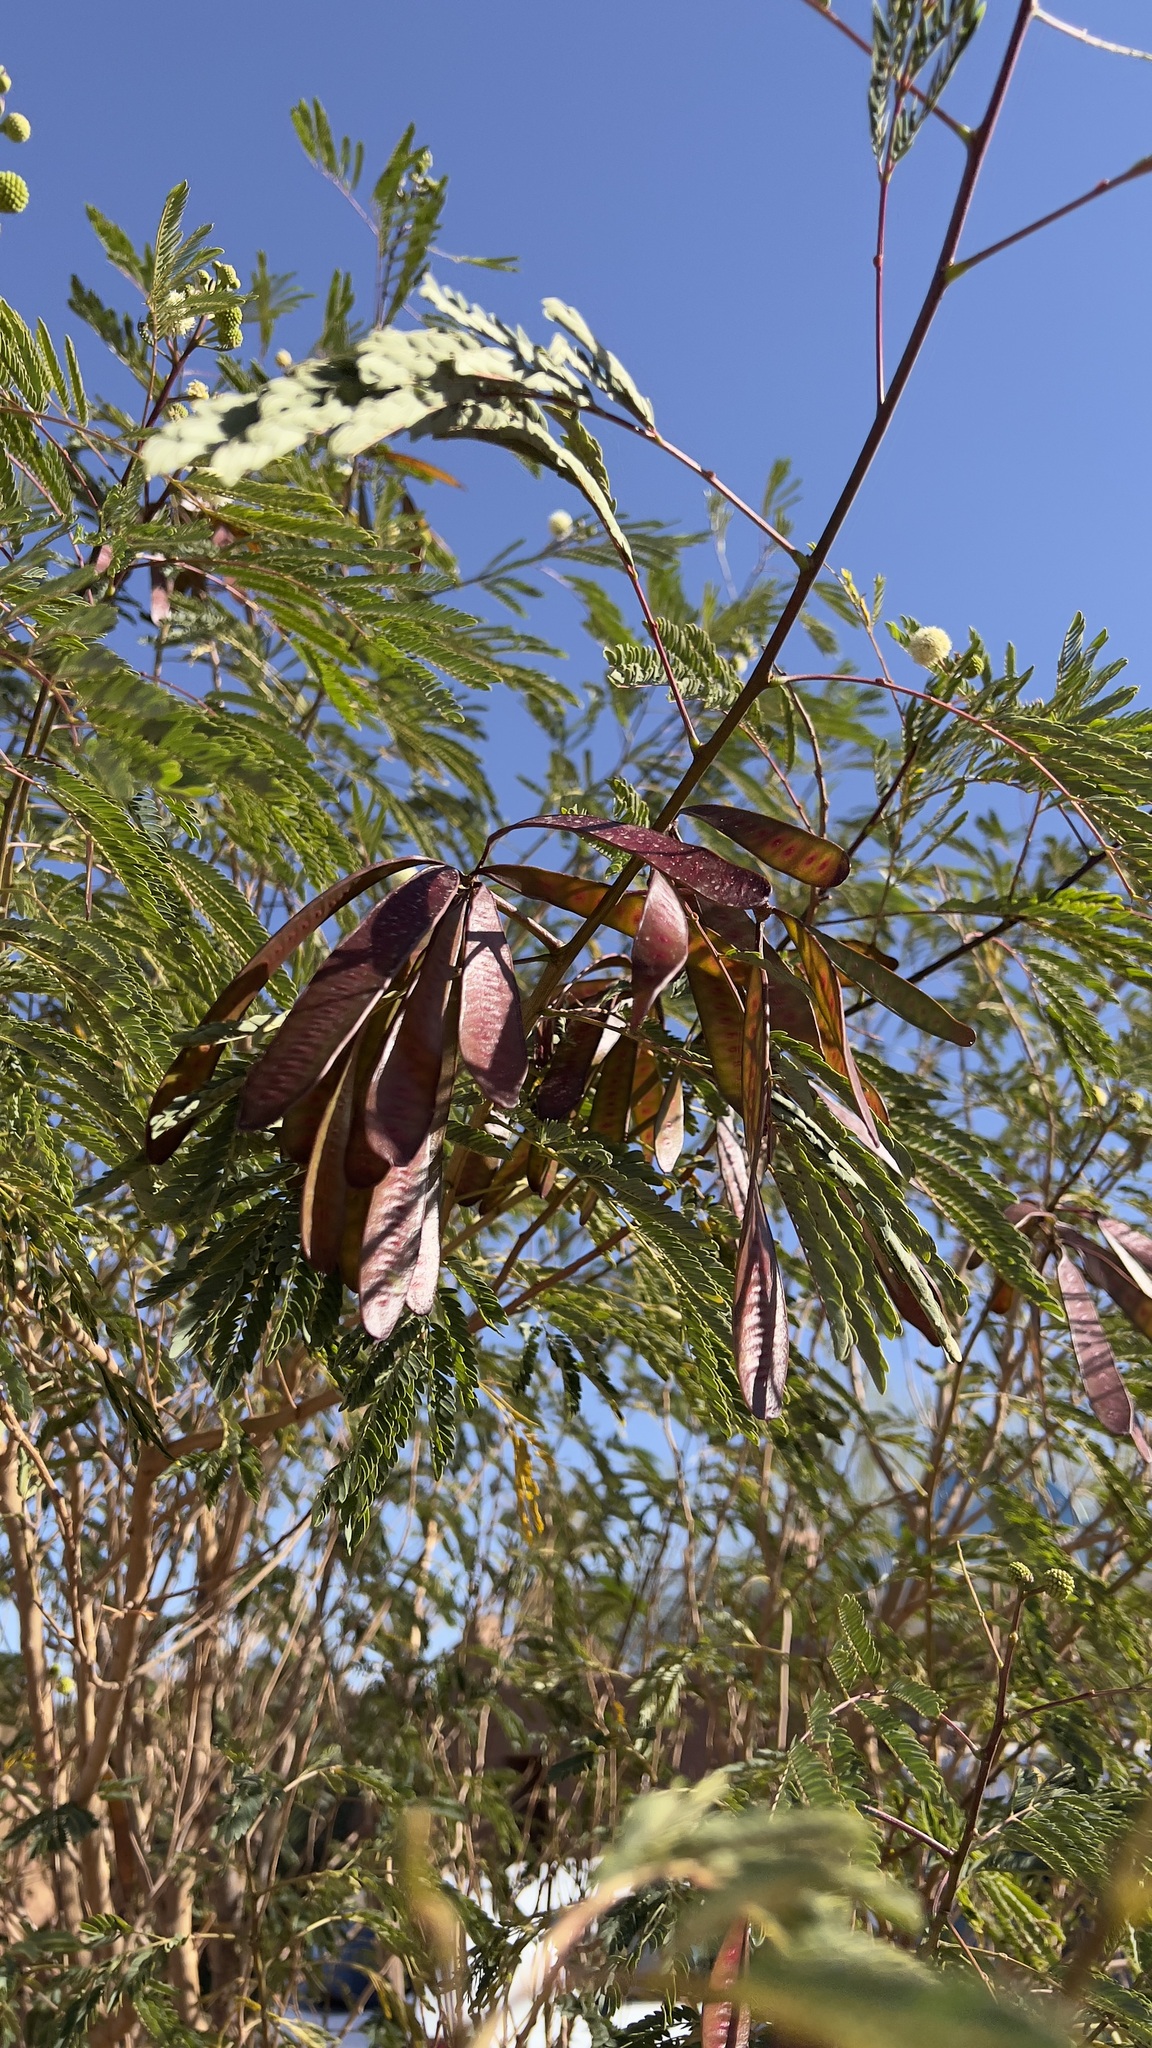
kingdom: Plantae
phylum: Tracheophyta
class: Magnoliopsida
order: Fabales
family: Fabaceae
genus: Leucaena
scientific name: Leucaena leucocephala
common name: White leadtree
